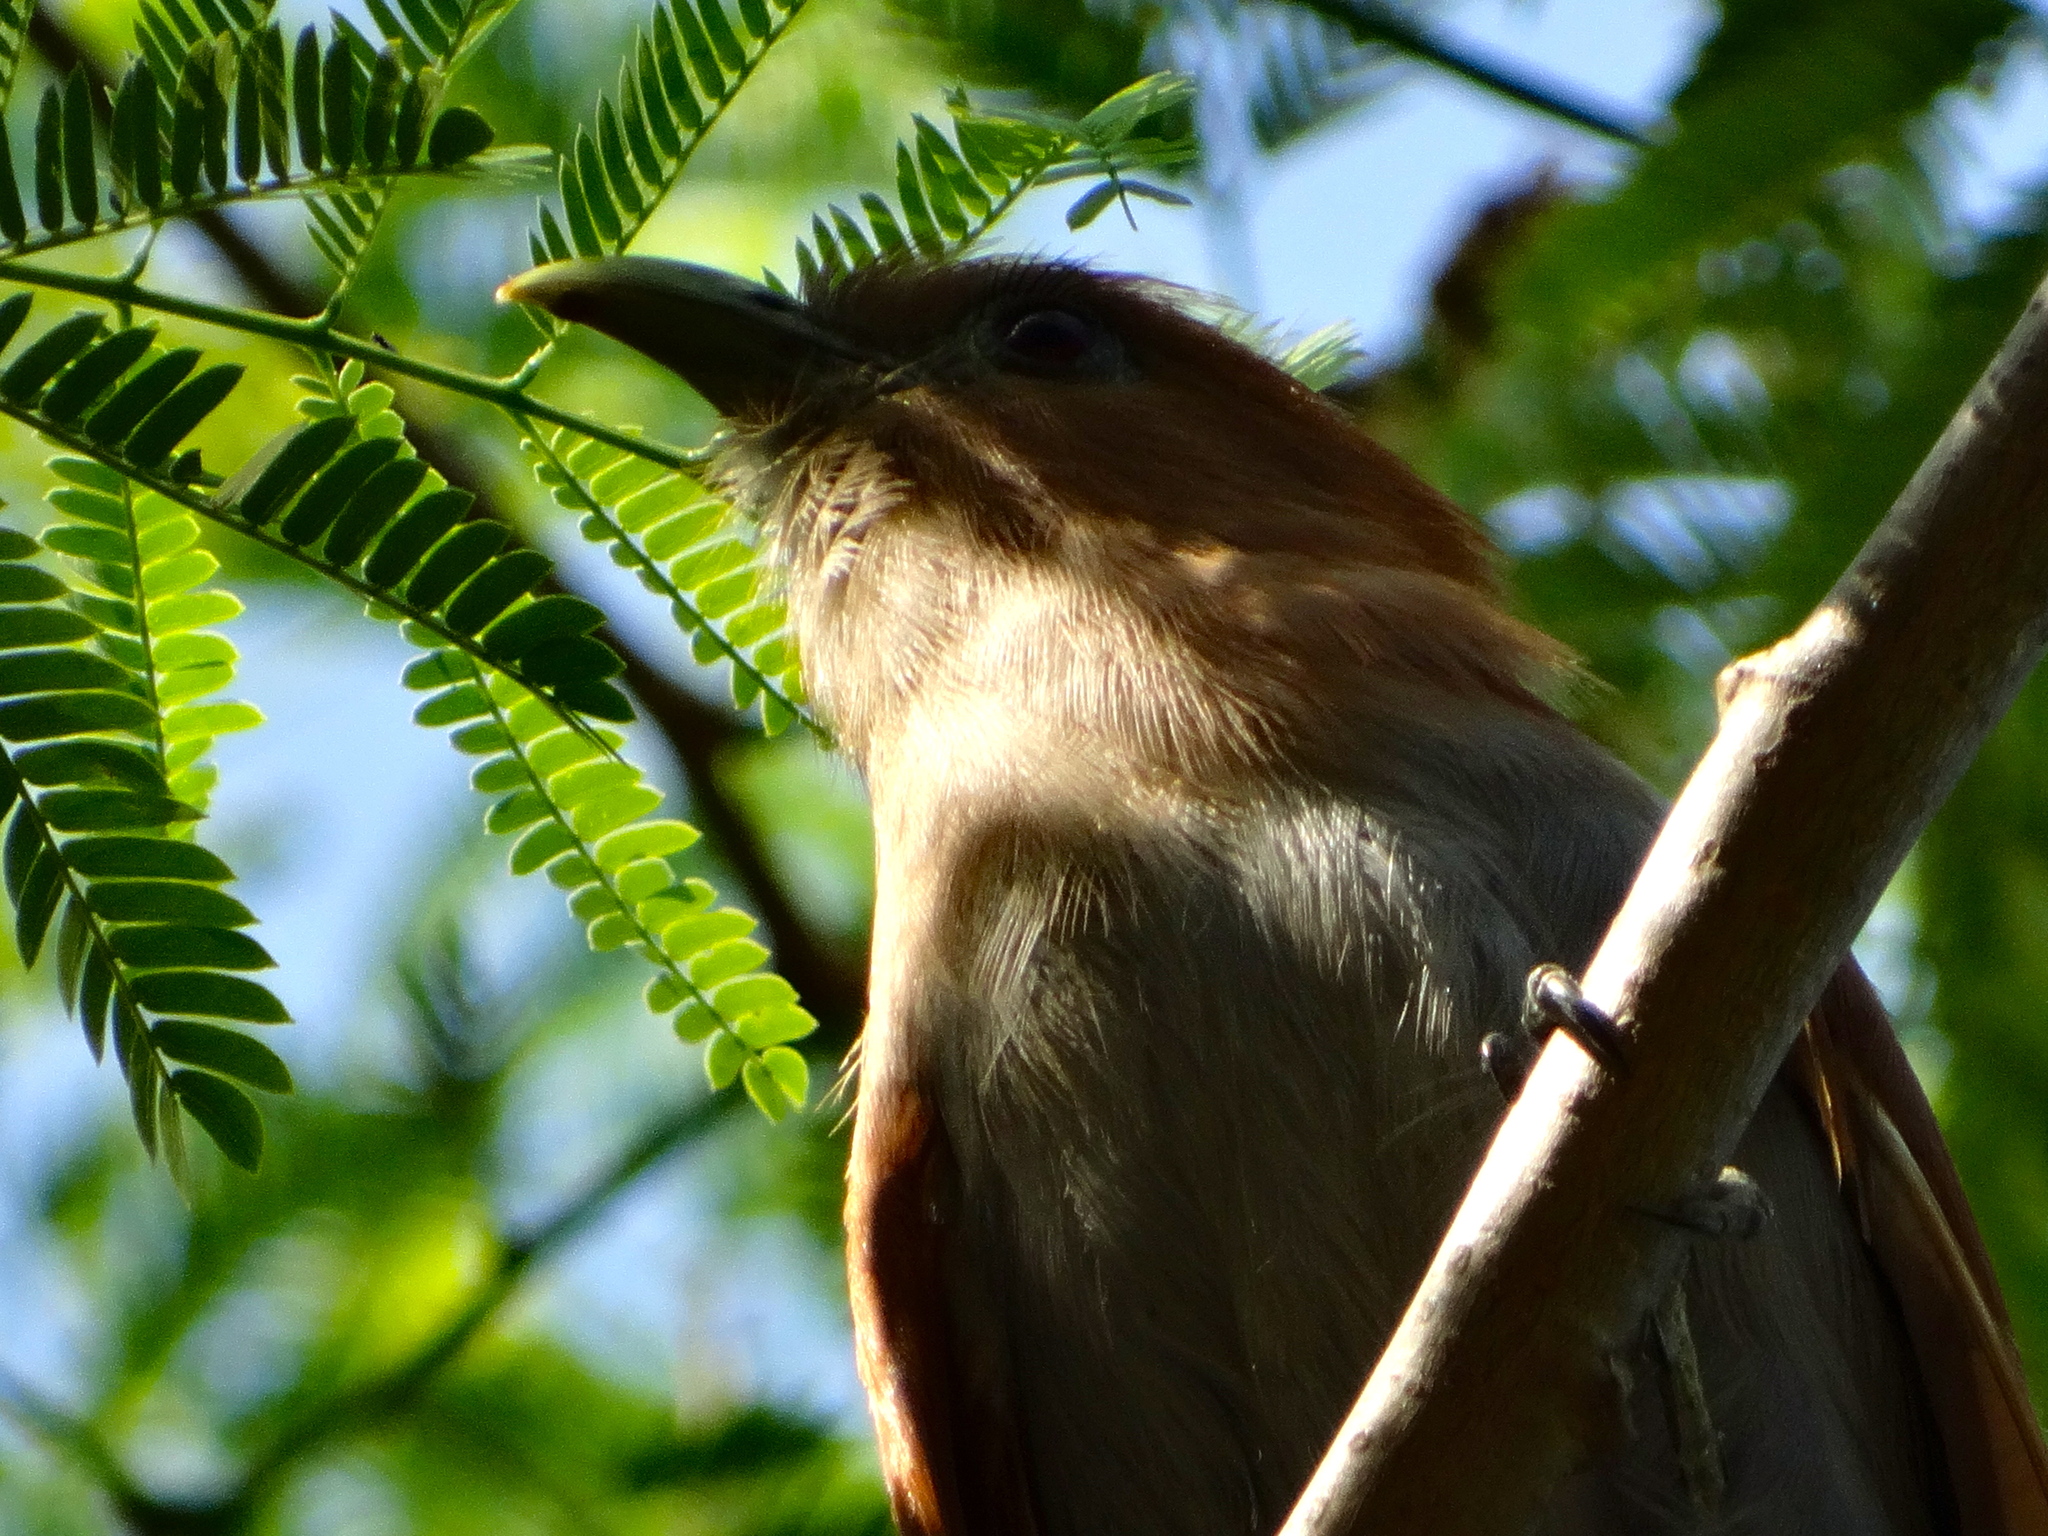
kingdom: Animalia
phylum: Chordata
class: Aves
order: Cuculiformes
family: Cuculidae
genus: Piaya
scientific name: Piaya cayana
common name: Squirrel cuckoo
